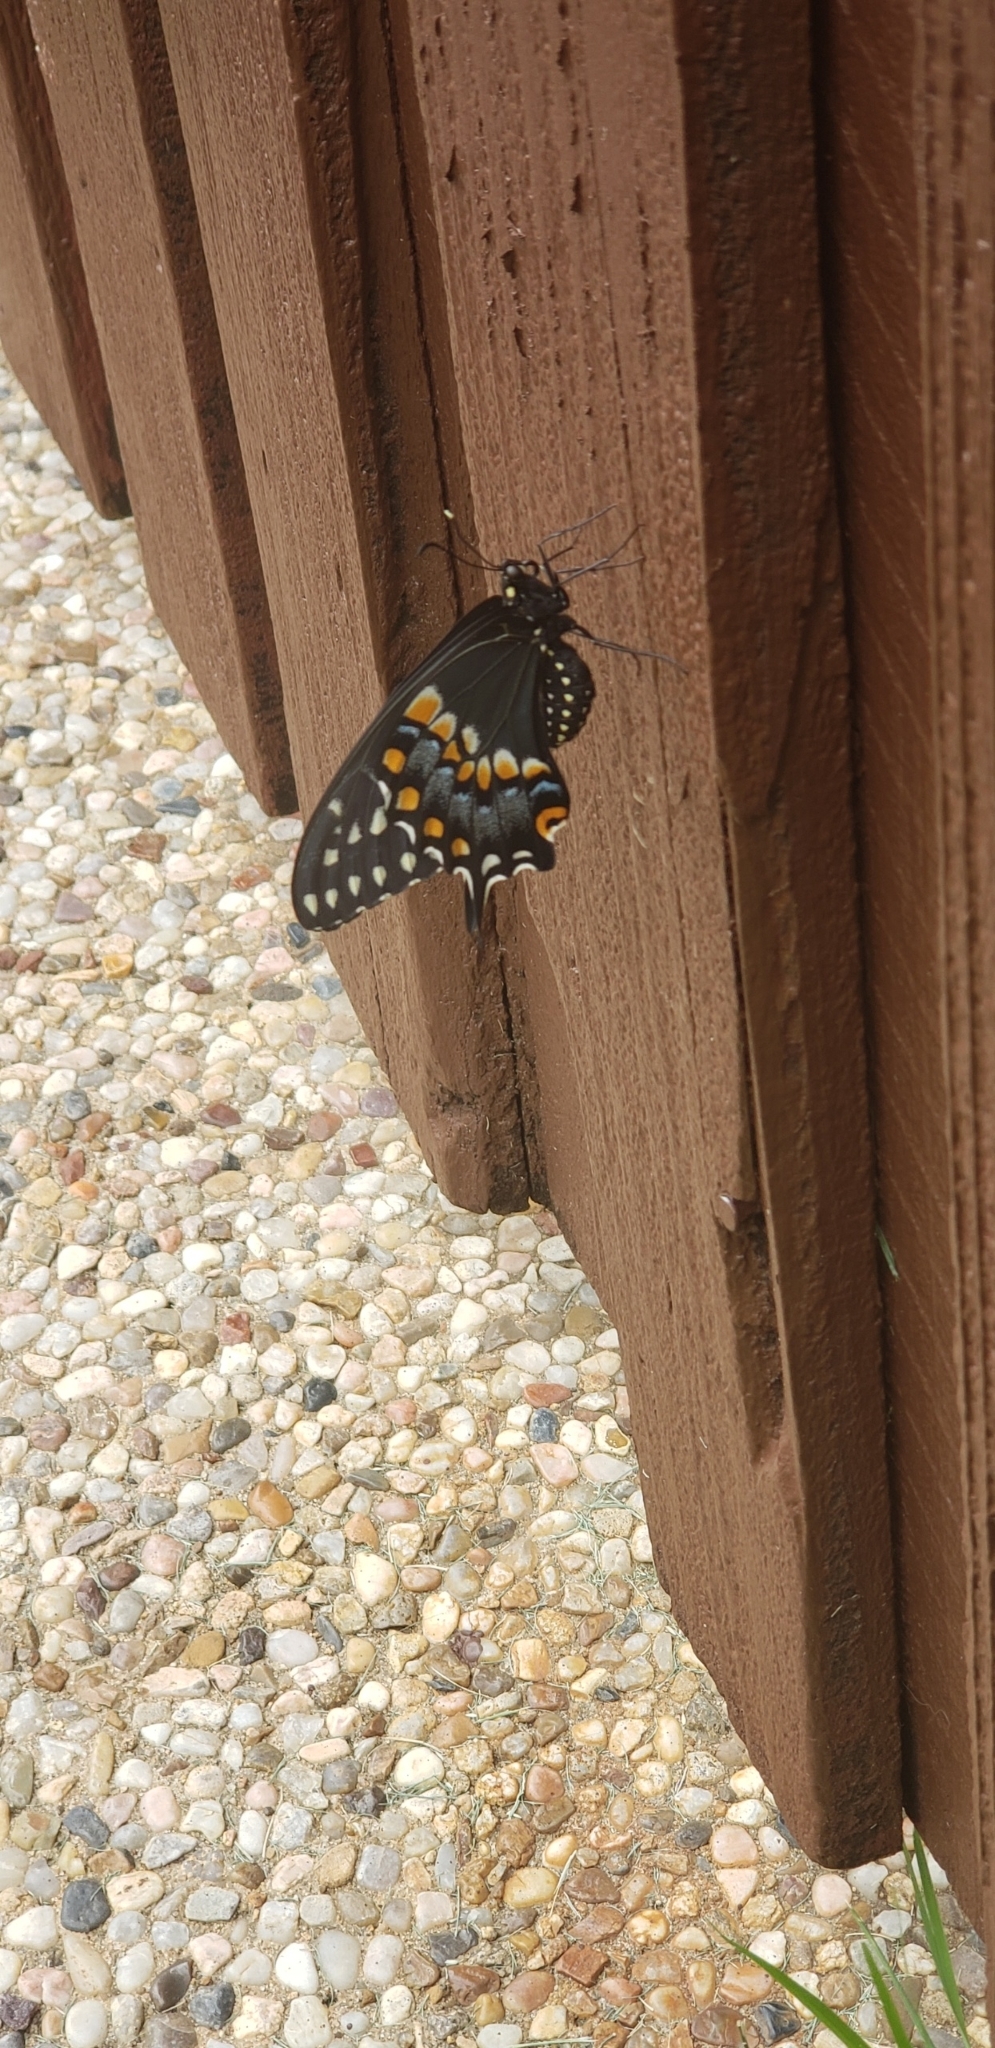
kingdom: Animalia
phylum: Arthropoda
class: Insecta
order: Lepidoptera
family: Papilionidae
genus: Papilio
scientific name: Papilio polyxenes
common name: Black swallowtail
